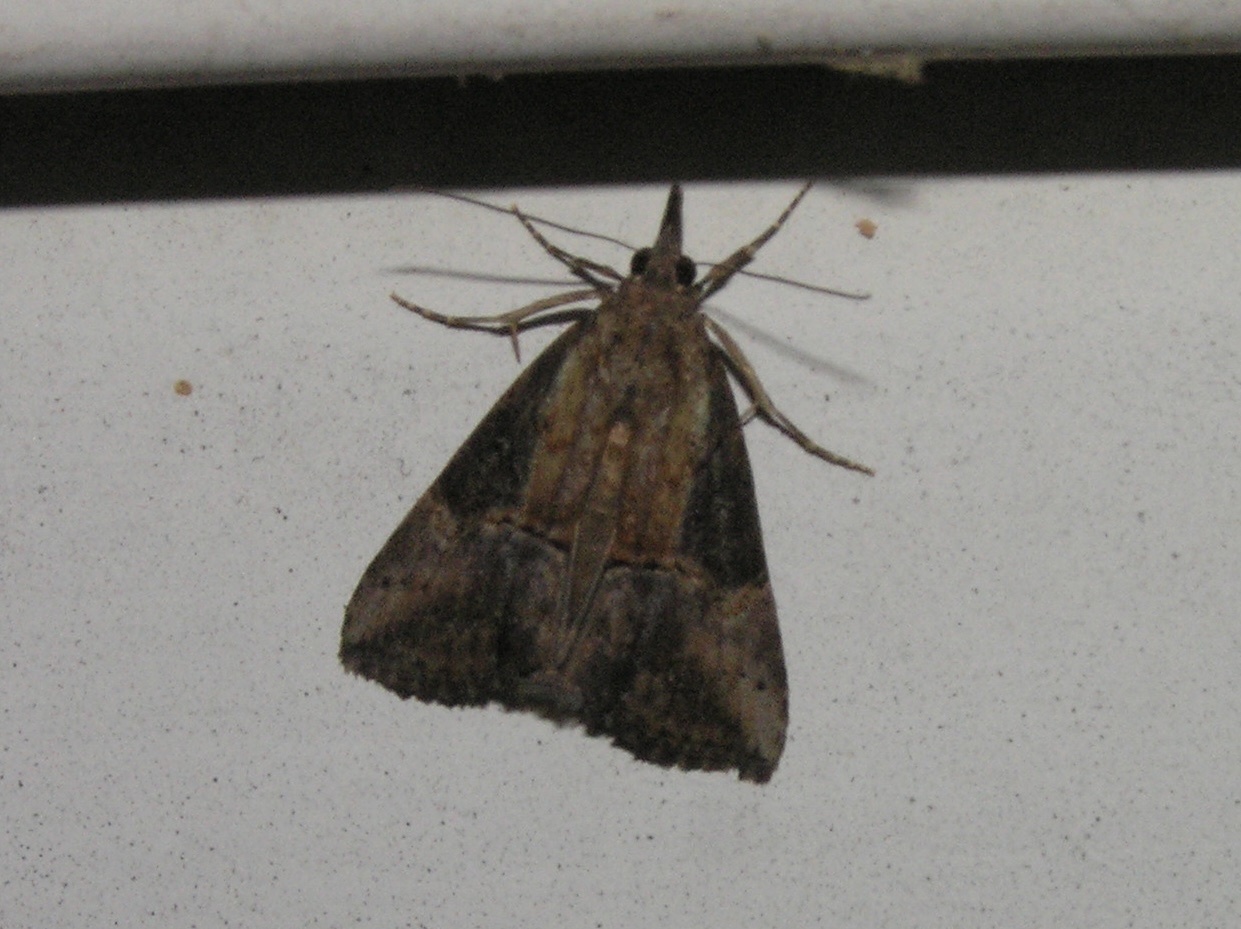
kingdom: Animalia
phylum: Arthropoda
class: Insecta
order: Lepidoptera
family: Erebidae
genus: Hypena
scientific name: Hypena scabra
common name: Green cloverworm
